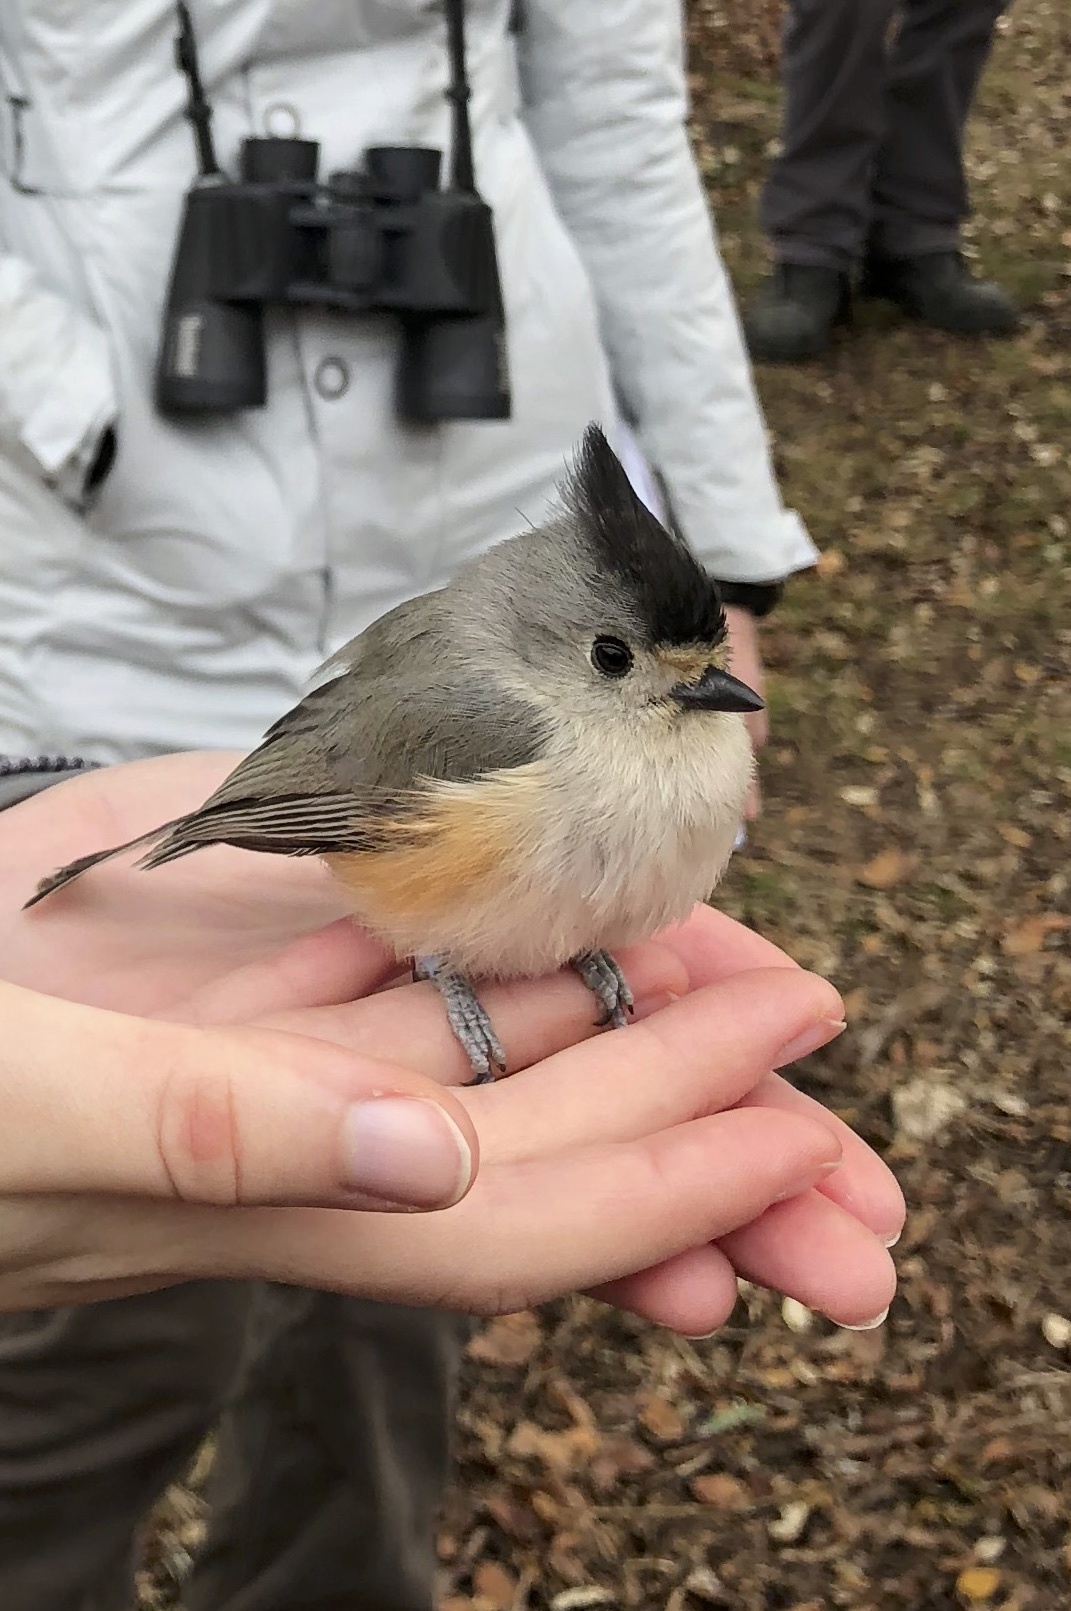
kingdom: Animalia
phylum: Chordata
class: Aves
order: Passeriformes
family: Paridae
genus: Baeolophus
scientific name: Baeolophus atricristatus
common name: Black-crested titmouse
